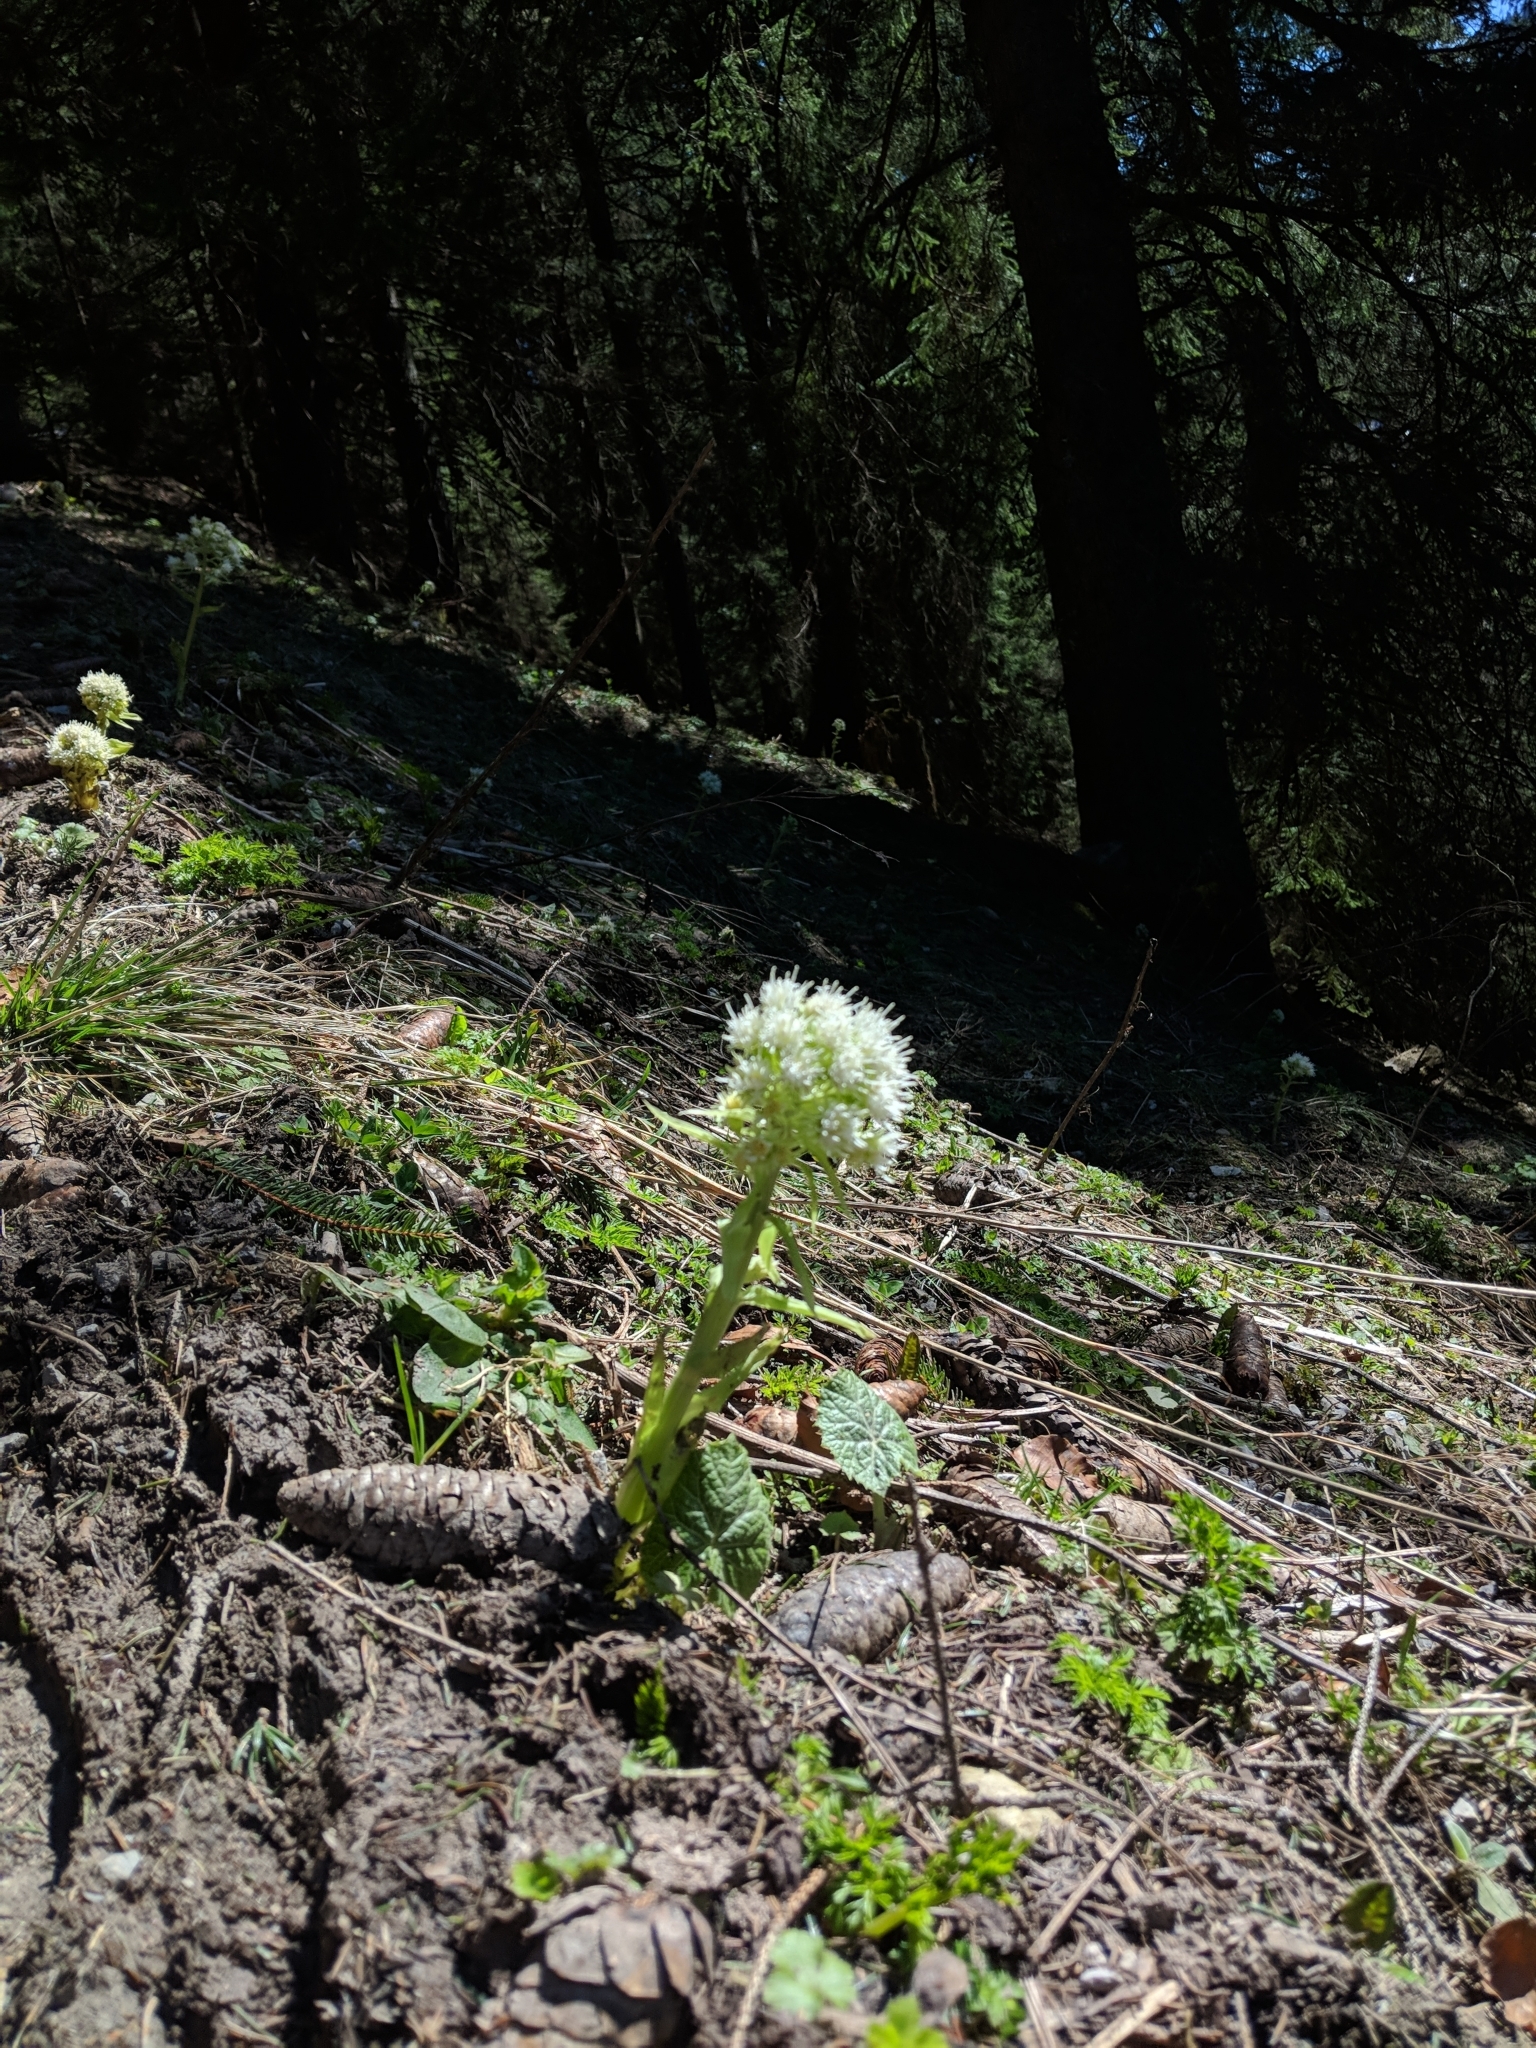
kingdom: Plantae
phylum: Tracheophyta
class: Magnoliopsida
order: Asterales
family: Asteraceae
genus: Petasites
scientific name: Petasites albus
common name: White butterbur
